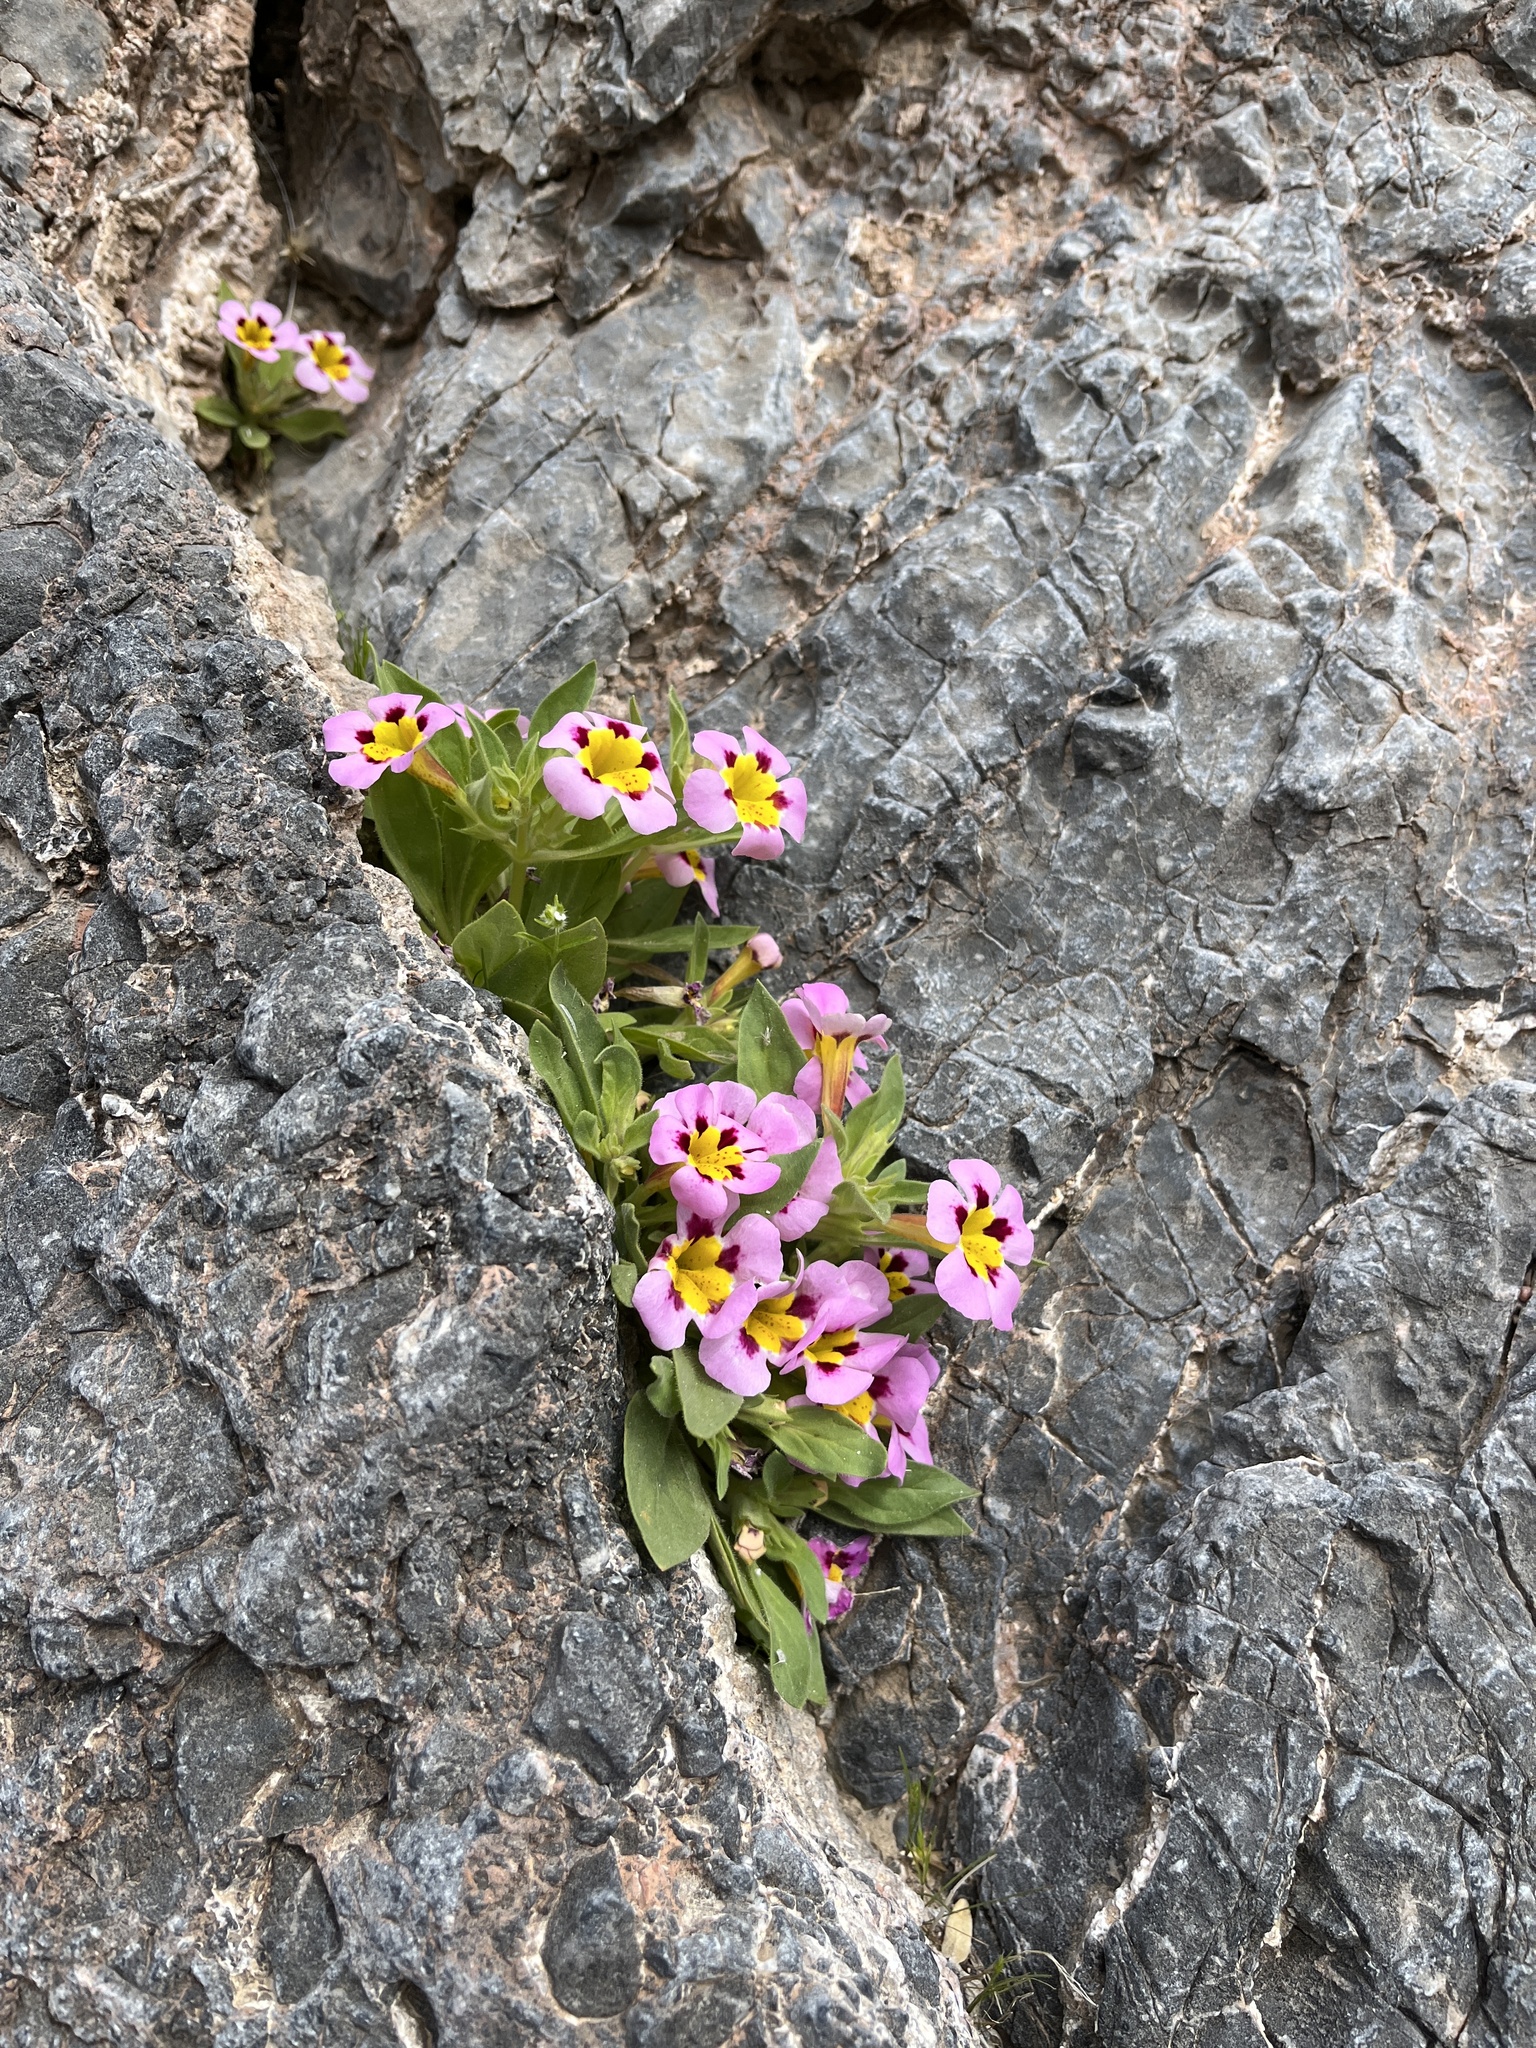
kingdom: Plantae
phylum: Tracheophyta
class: Magnoliopsida
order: Lamiales
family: Phrymaceae
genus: Diplacus
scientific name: Diplacus rupicola
